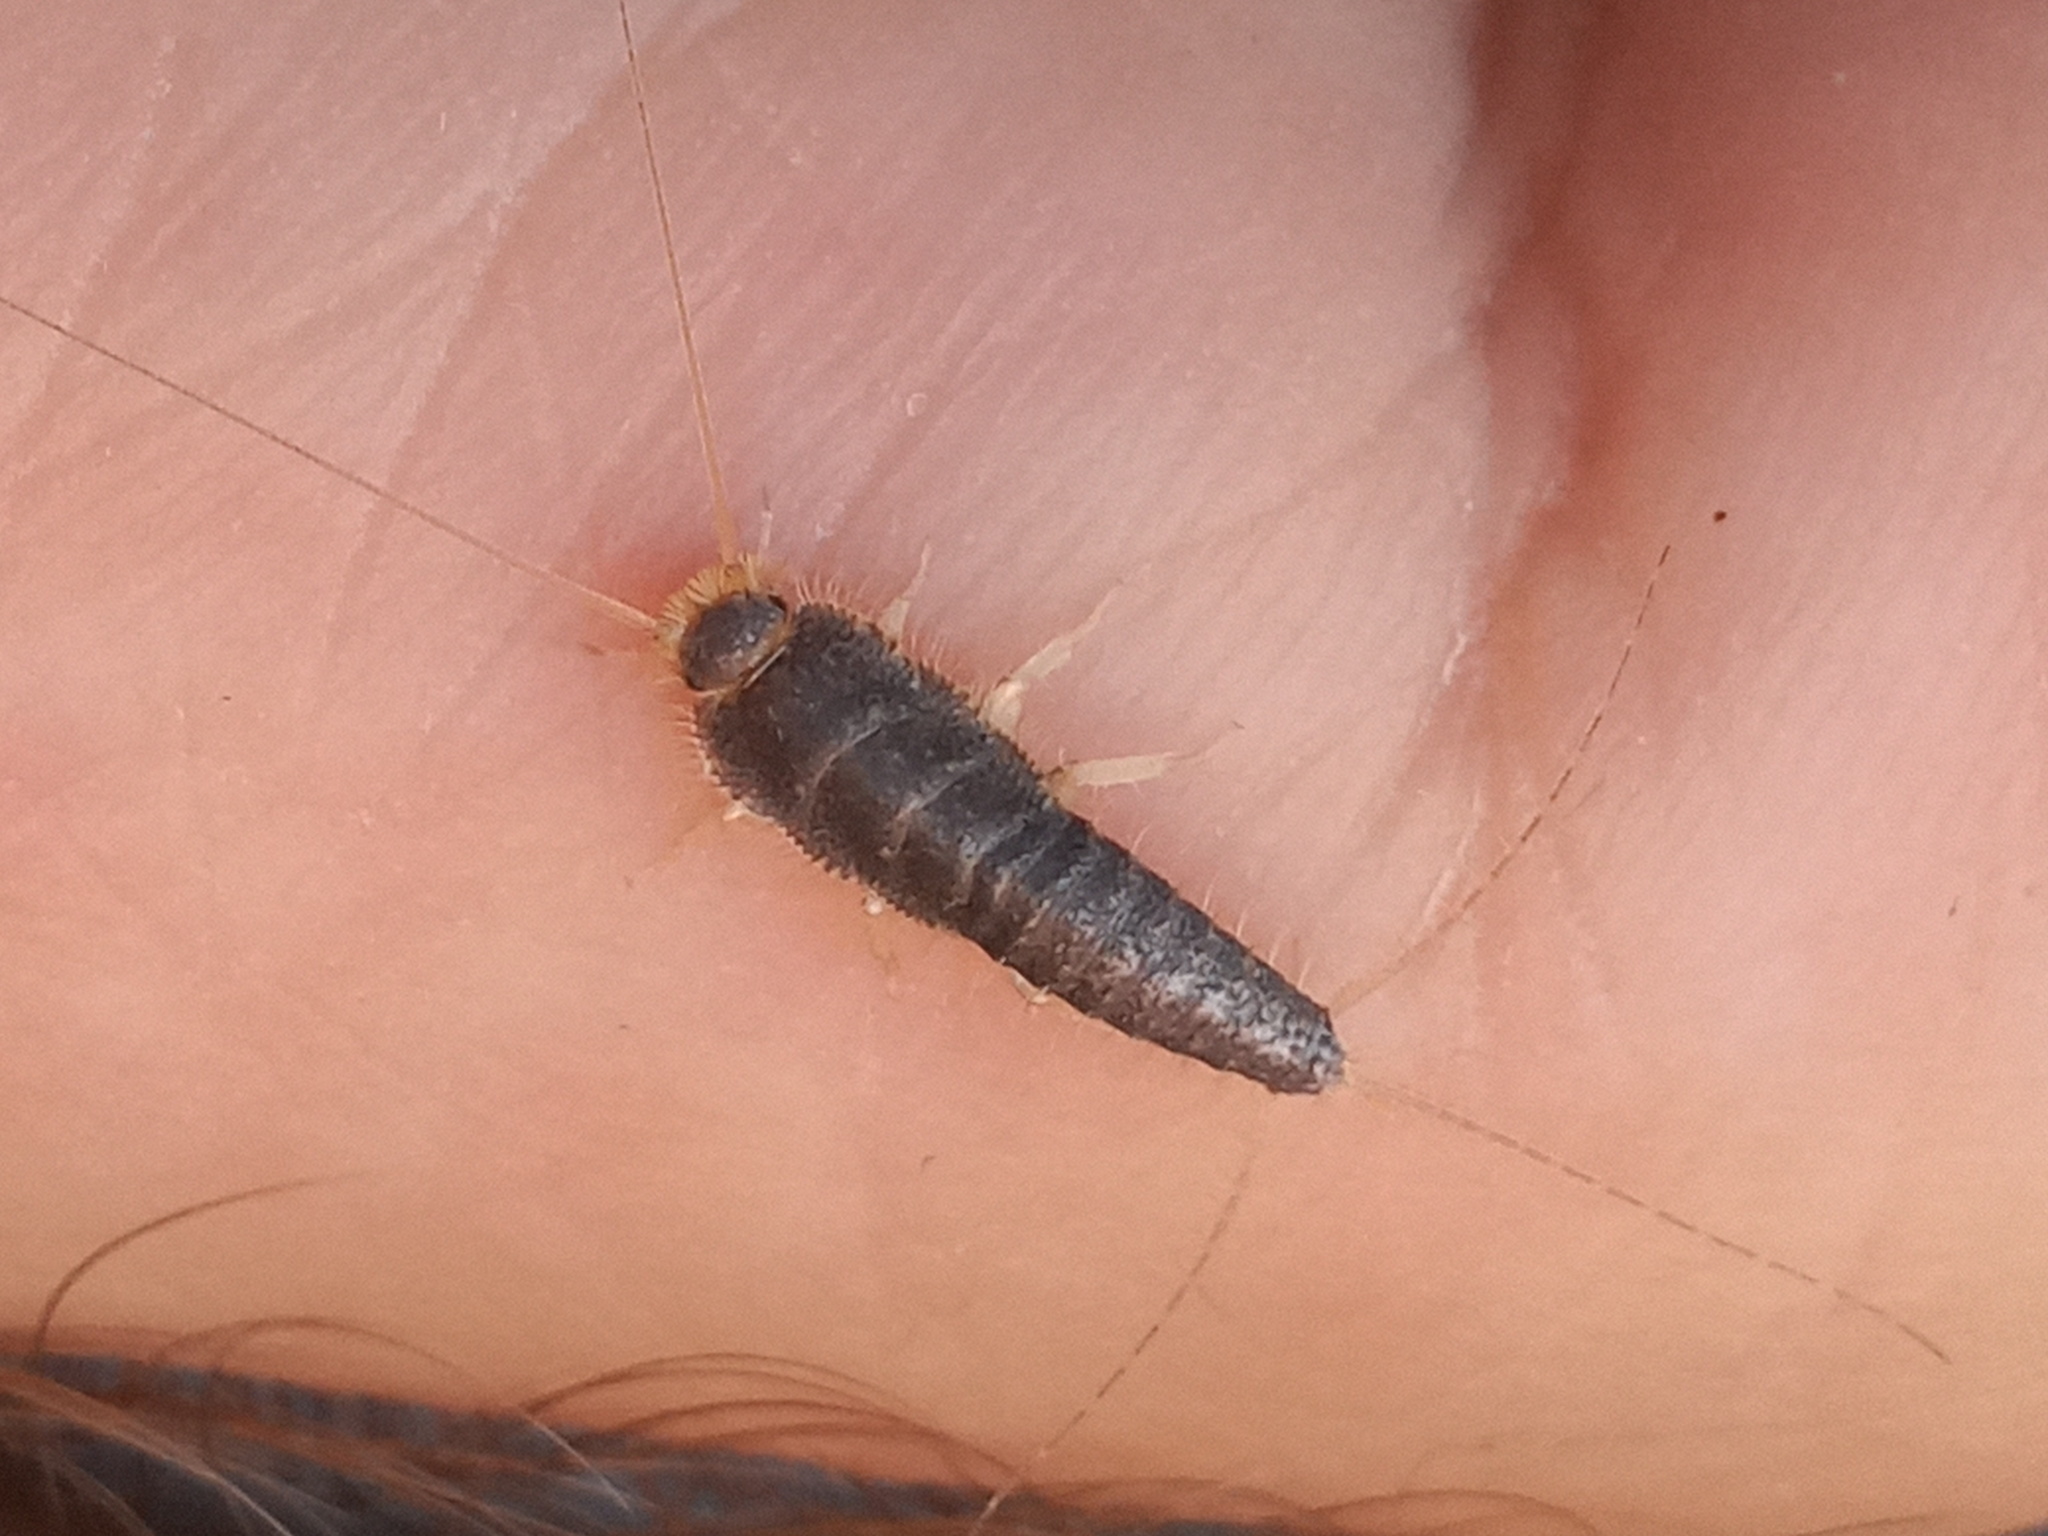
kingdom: Animalia
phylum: Arthropoda
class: Insecta
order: Zygentoma
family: Lepismatidae
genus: Ctenolepisma
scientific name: Ctenolepisma longicaudatum
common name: Silverfish
